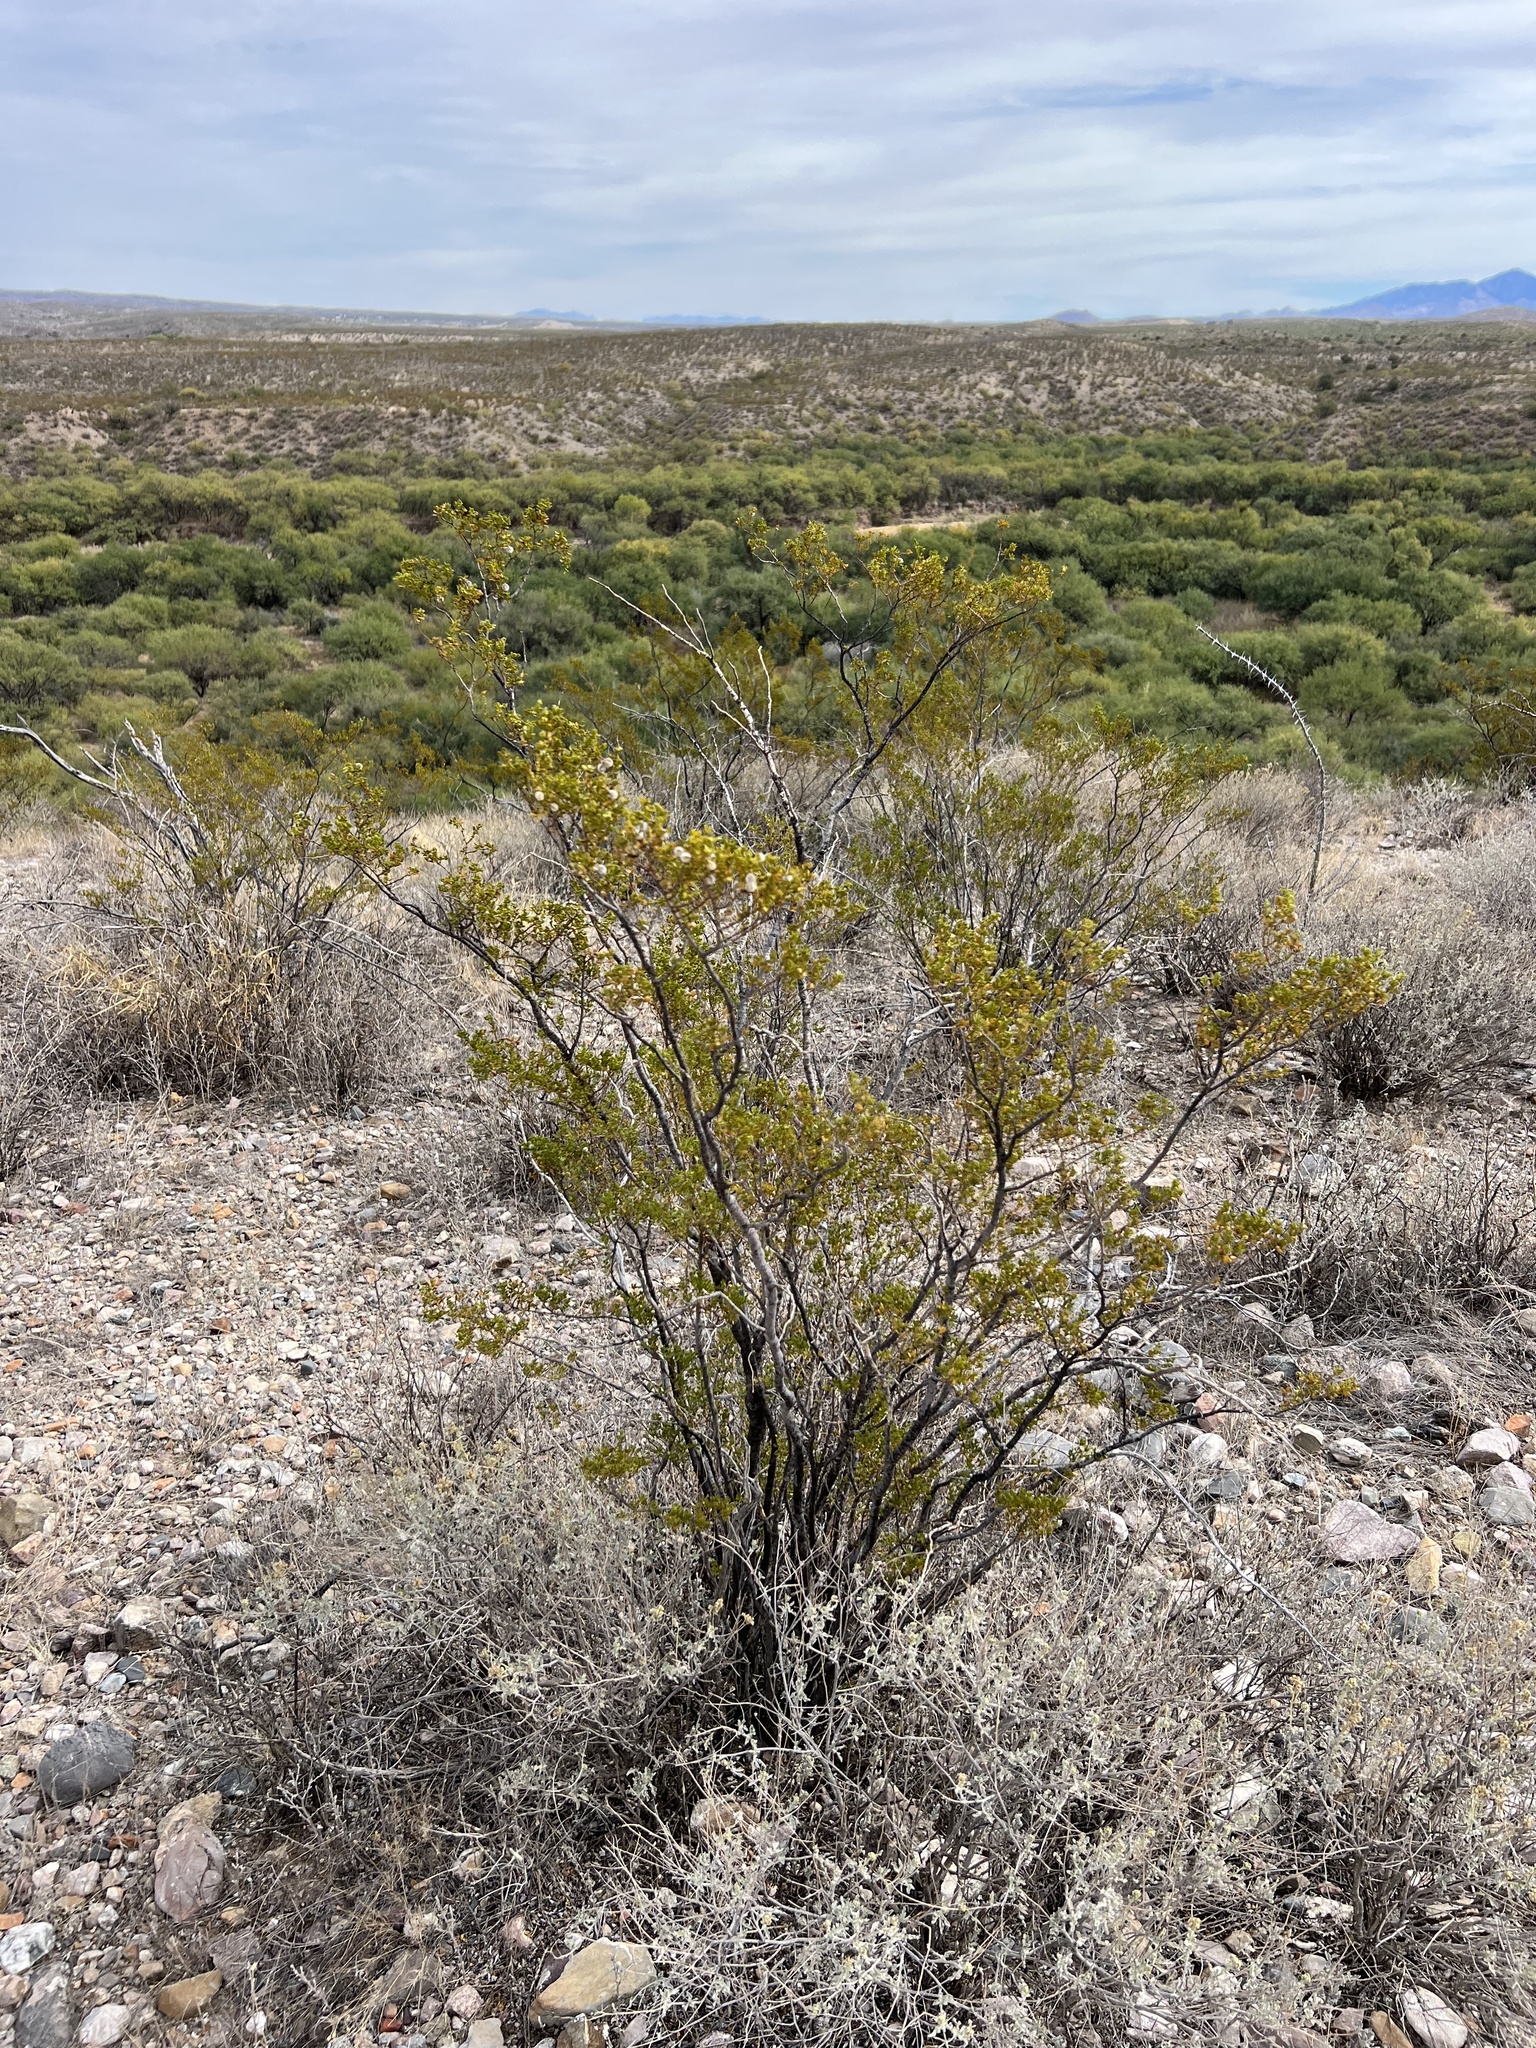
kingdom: Plantae
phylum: Tracheophyta
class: Magnoliopsida
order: Zygophyllales
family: Zygophyllaceae
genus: Larrea
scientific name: Larrea tridentata
